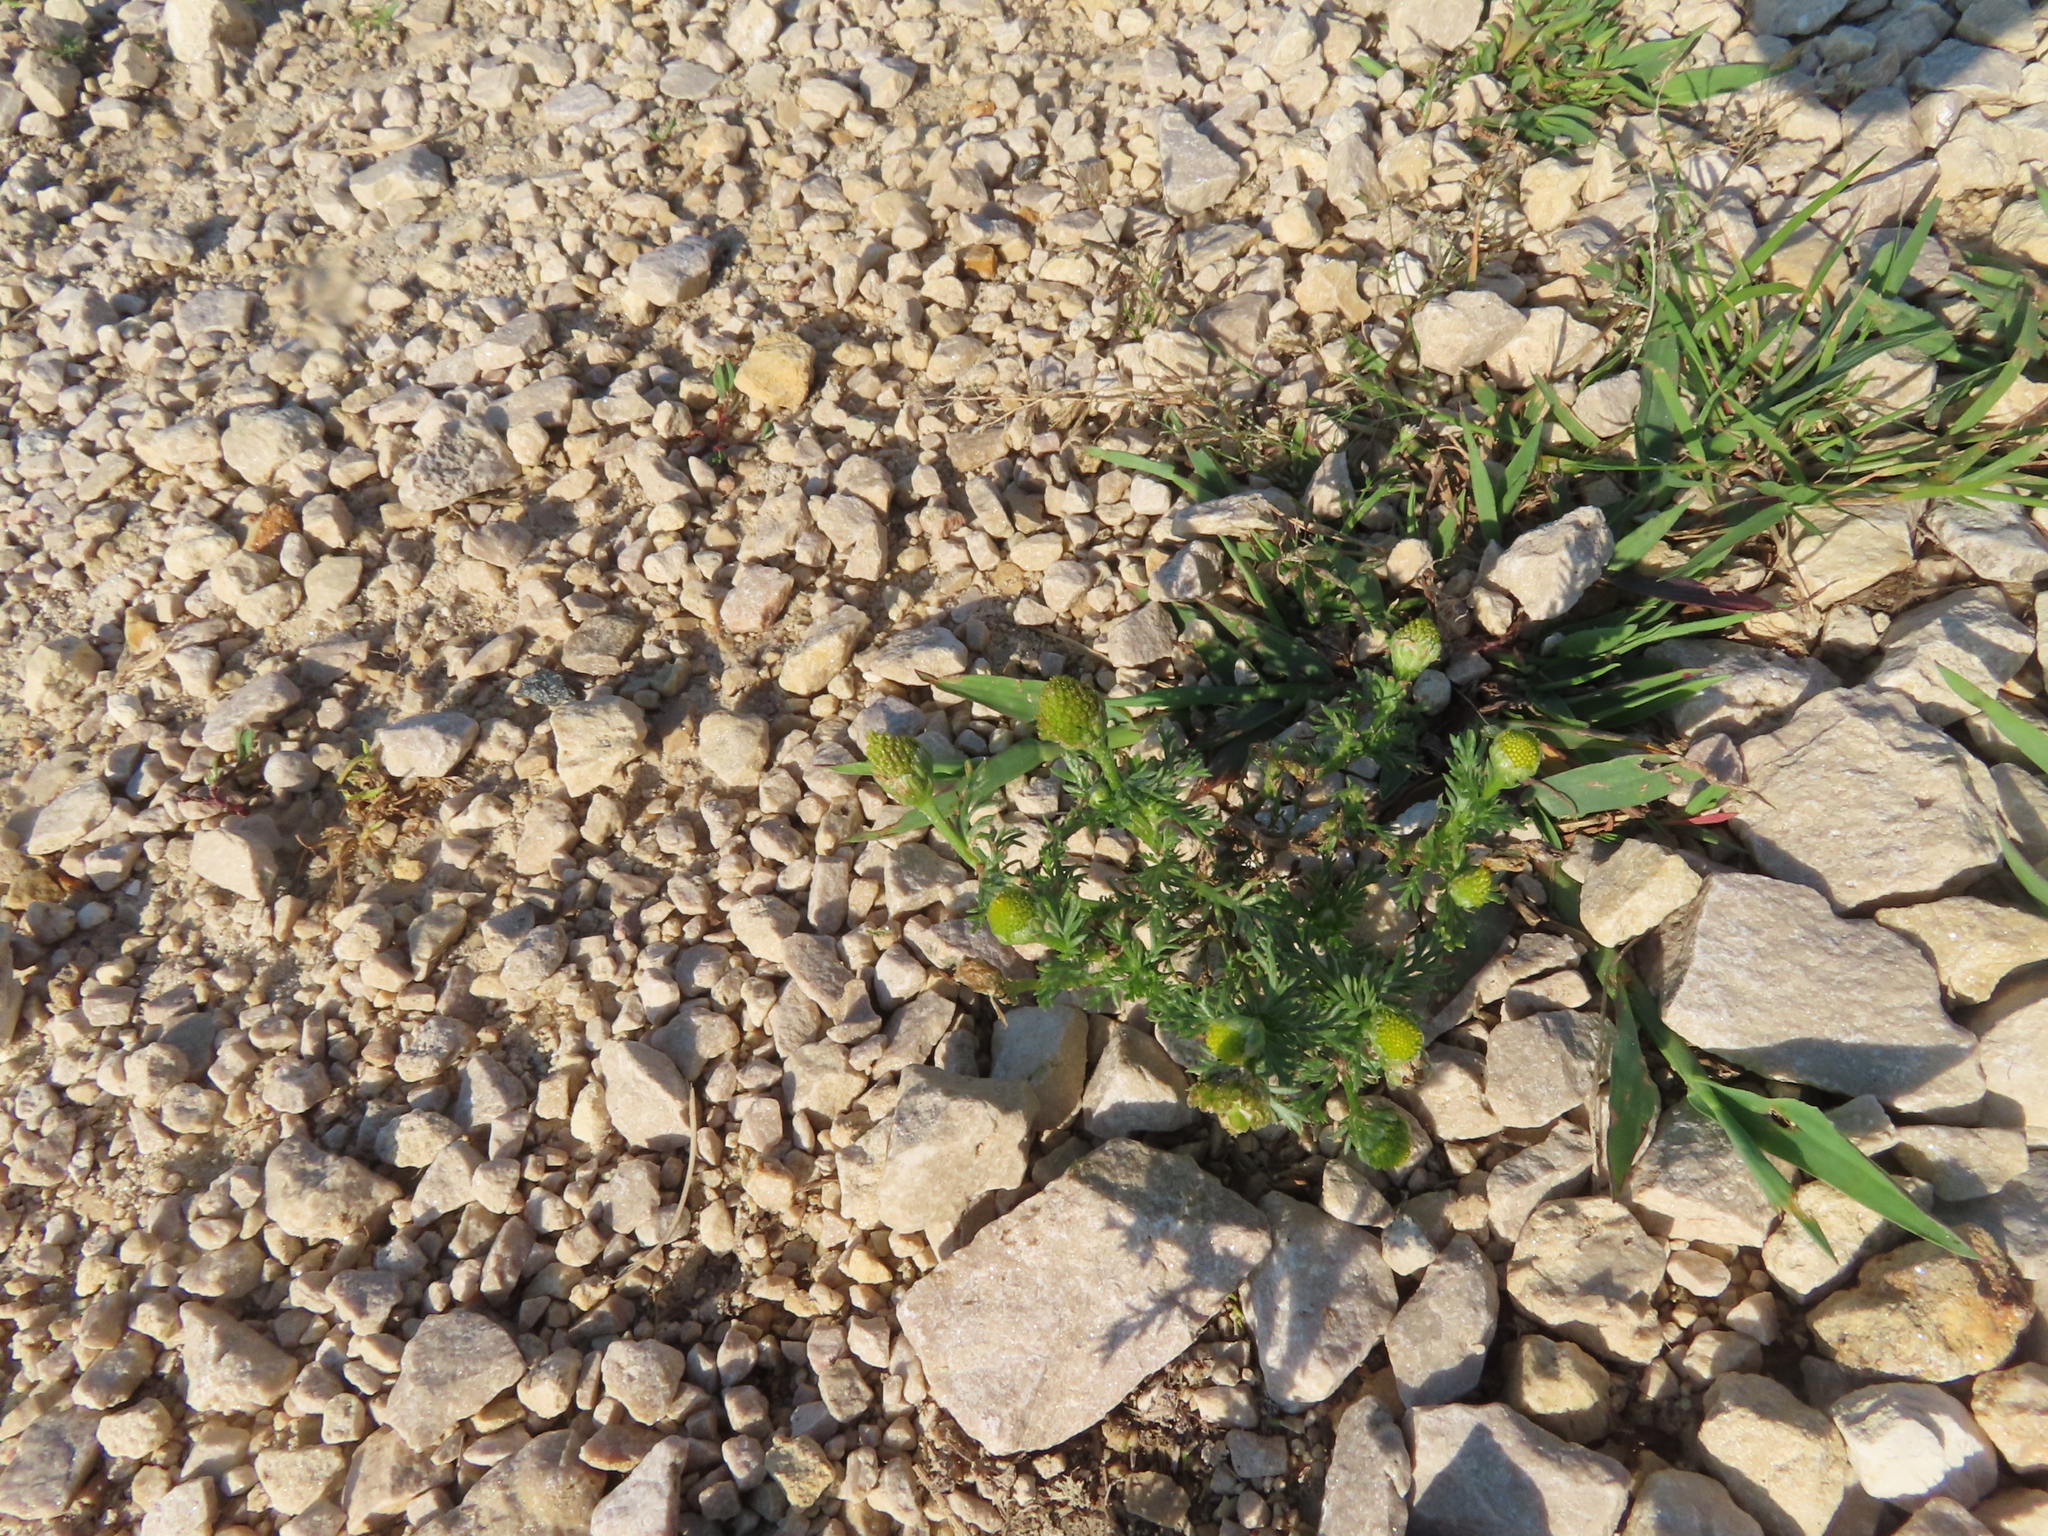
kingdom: Plantae
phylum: Tracheophyta
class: Magnoliopsida
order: Asterales
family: Asteraceae
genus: Matricaria
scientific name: Matricaria discoidea
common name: Disc mayweed
